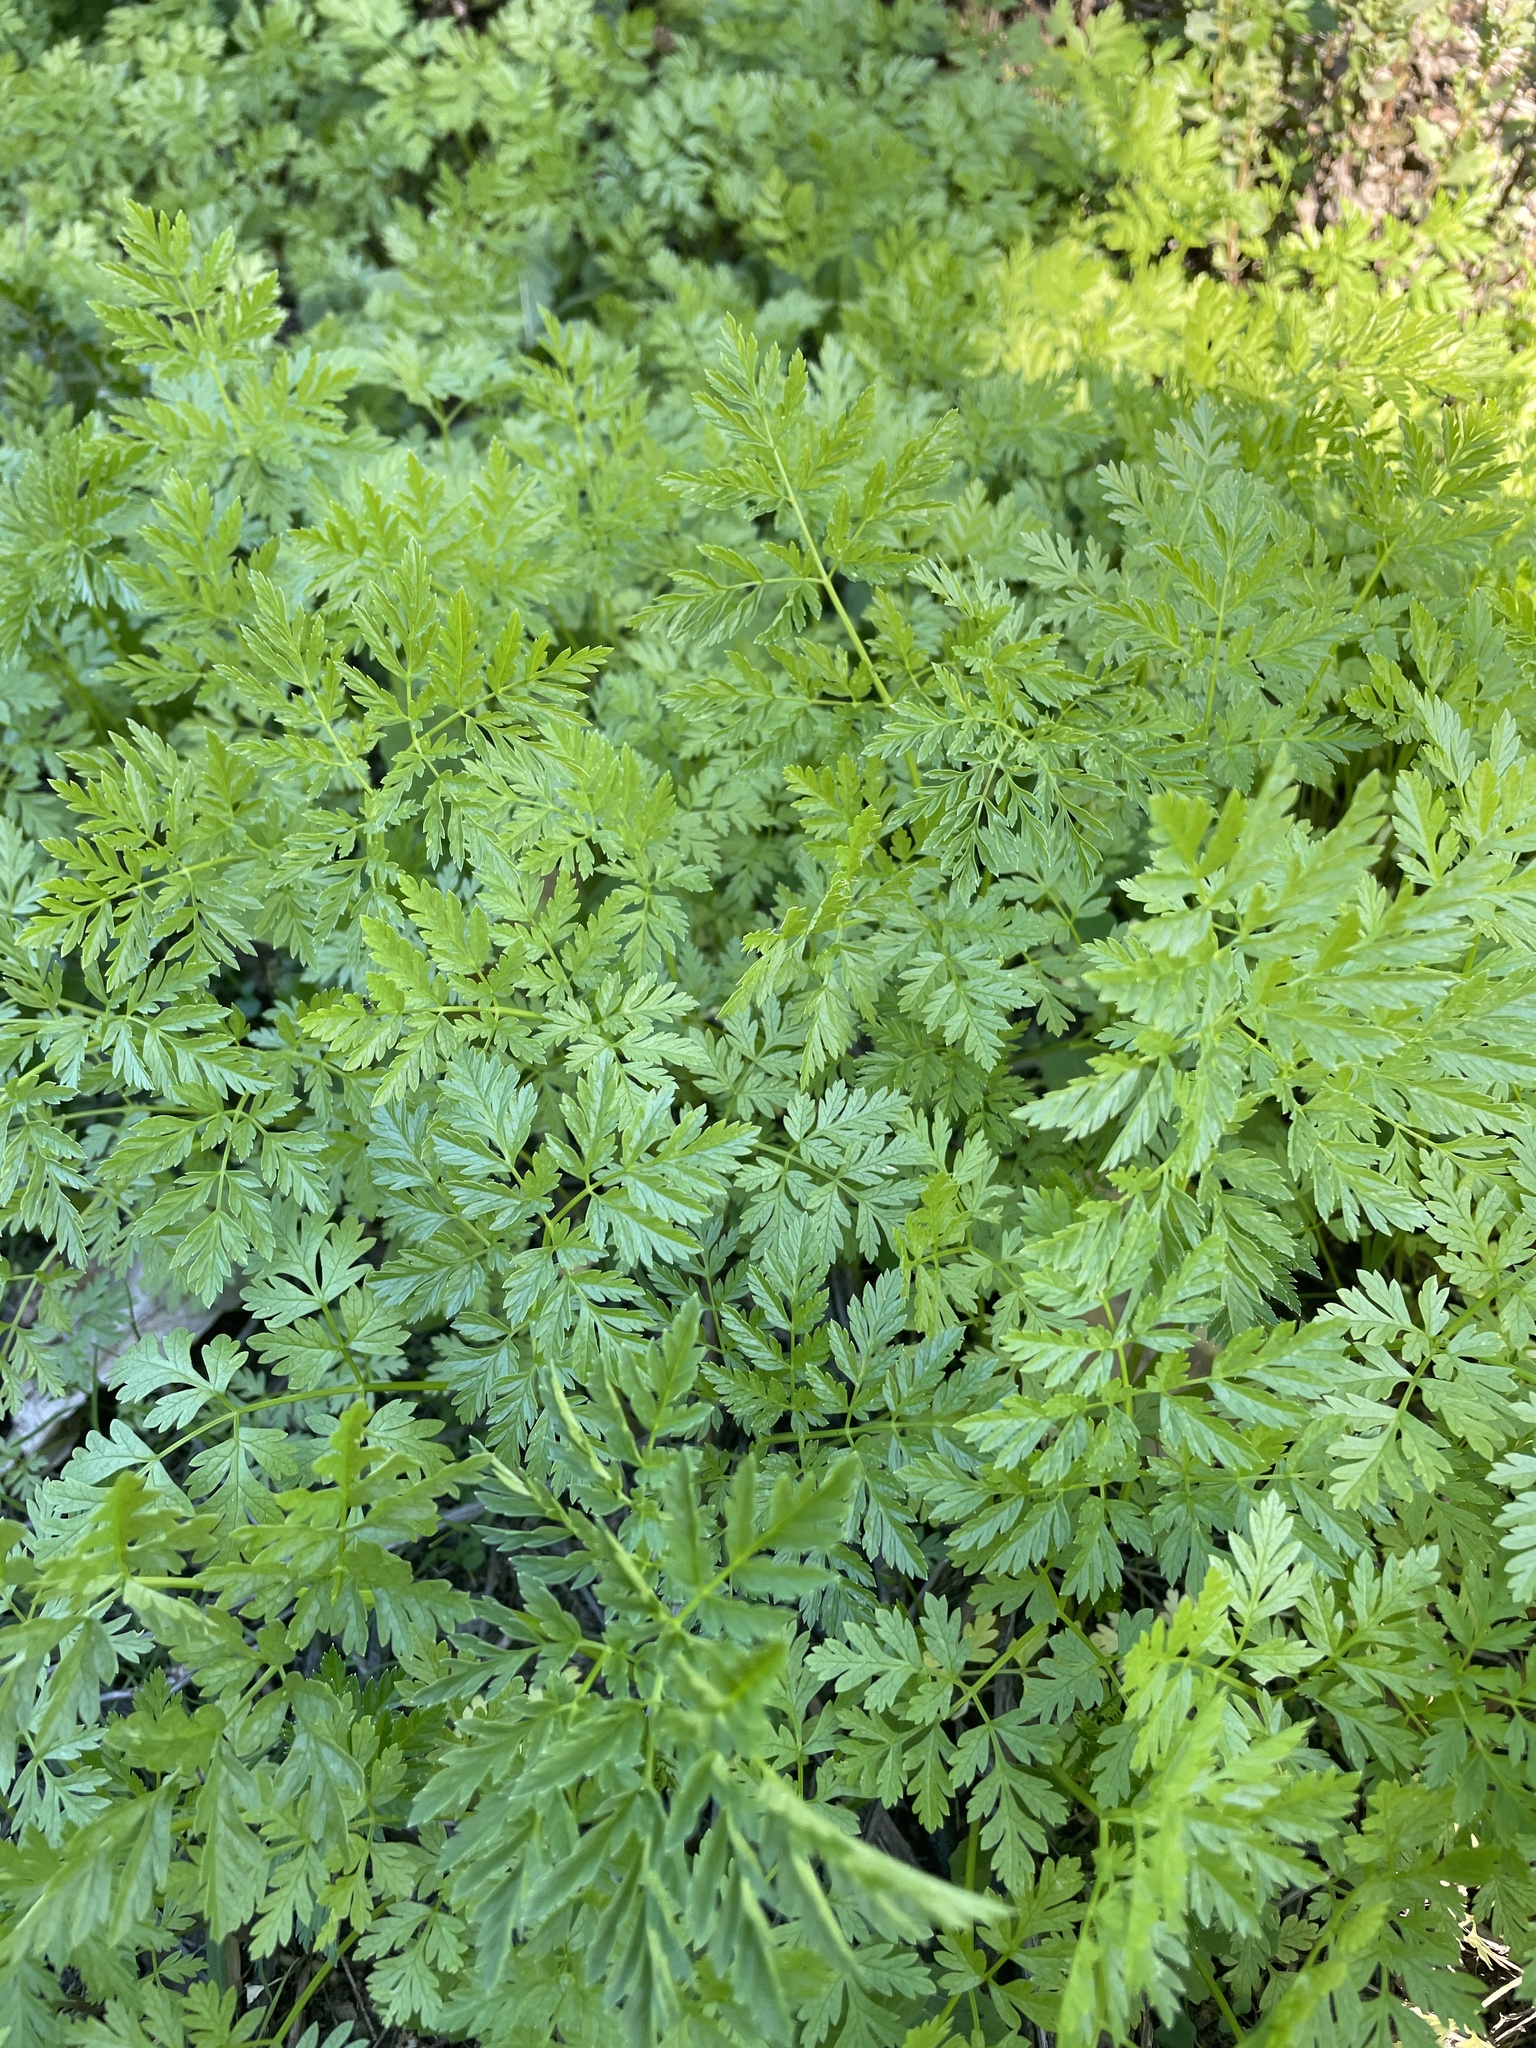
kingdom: Plantae
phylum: Tracheophyta
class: Magnoliopsida
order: Apiales
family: Apiaceae
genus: Conium
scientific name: Conium maculatum
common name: Hemlock
